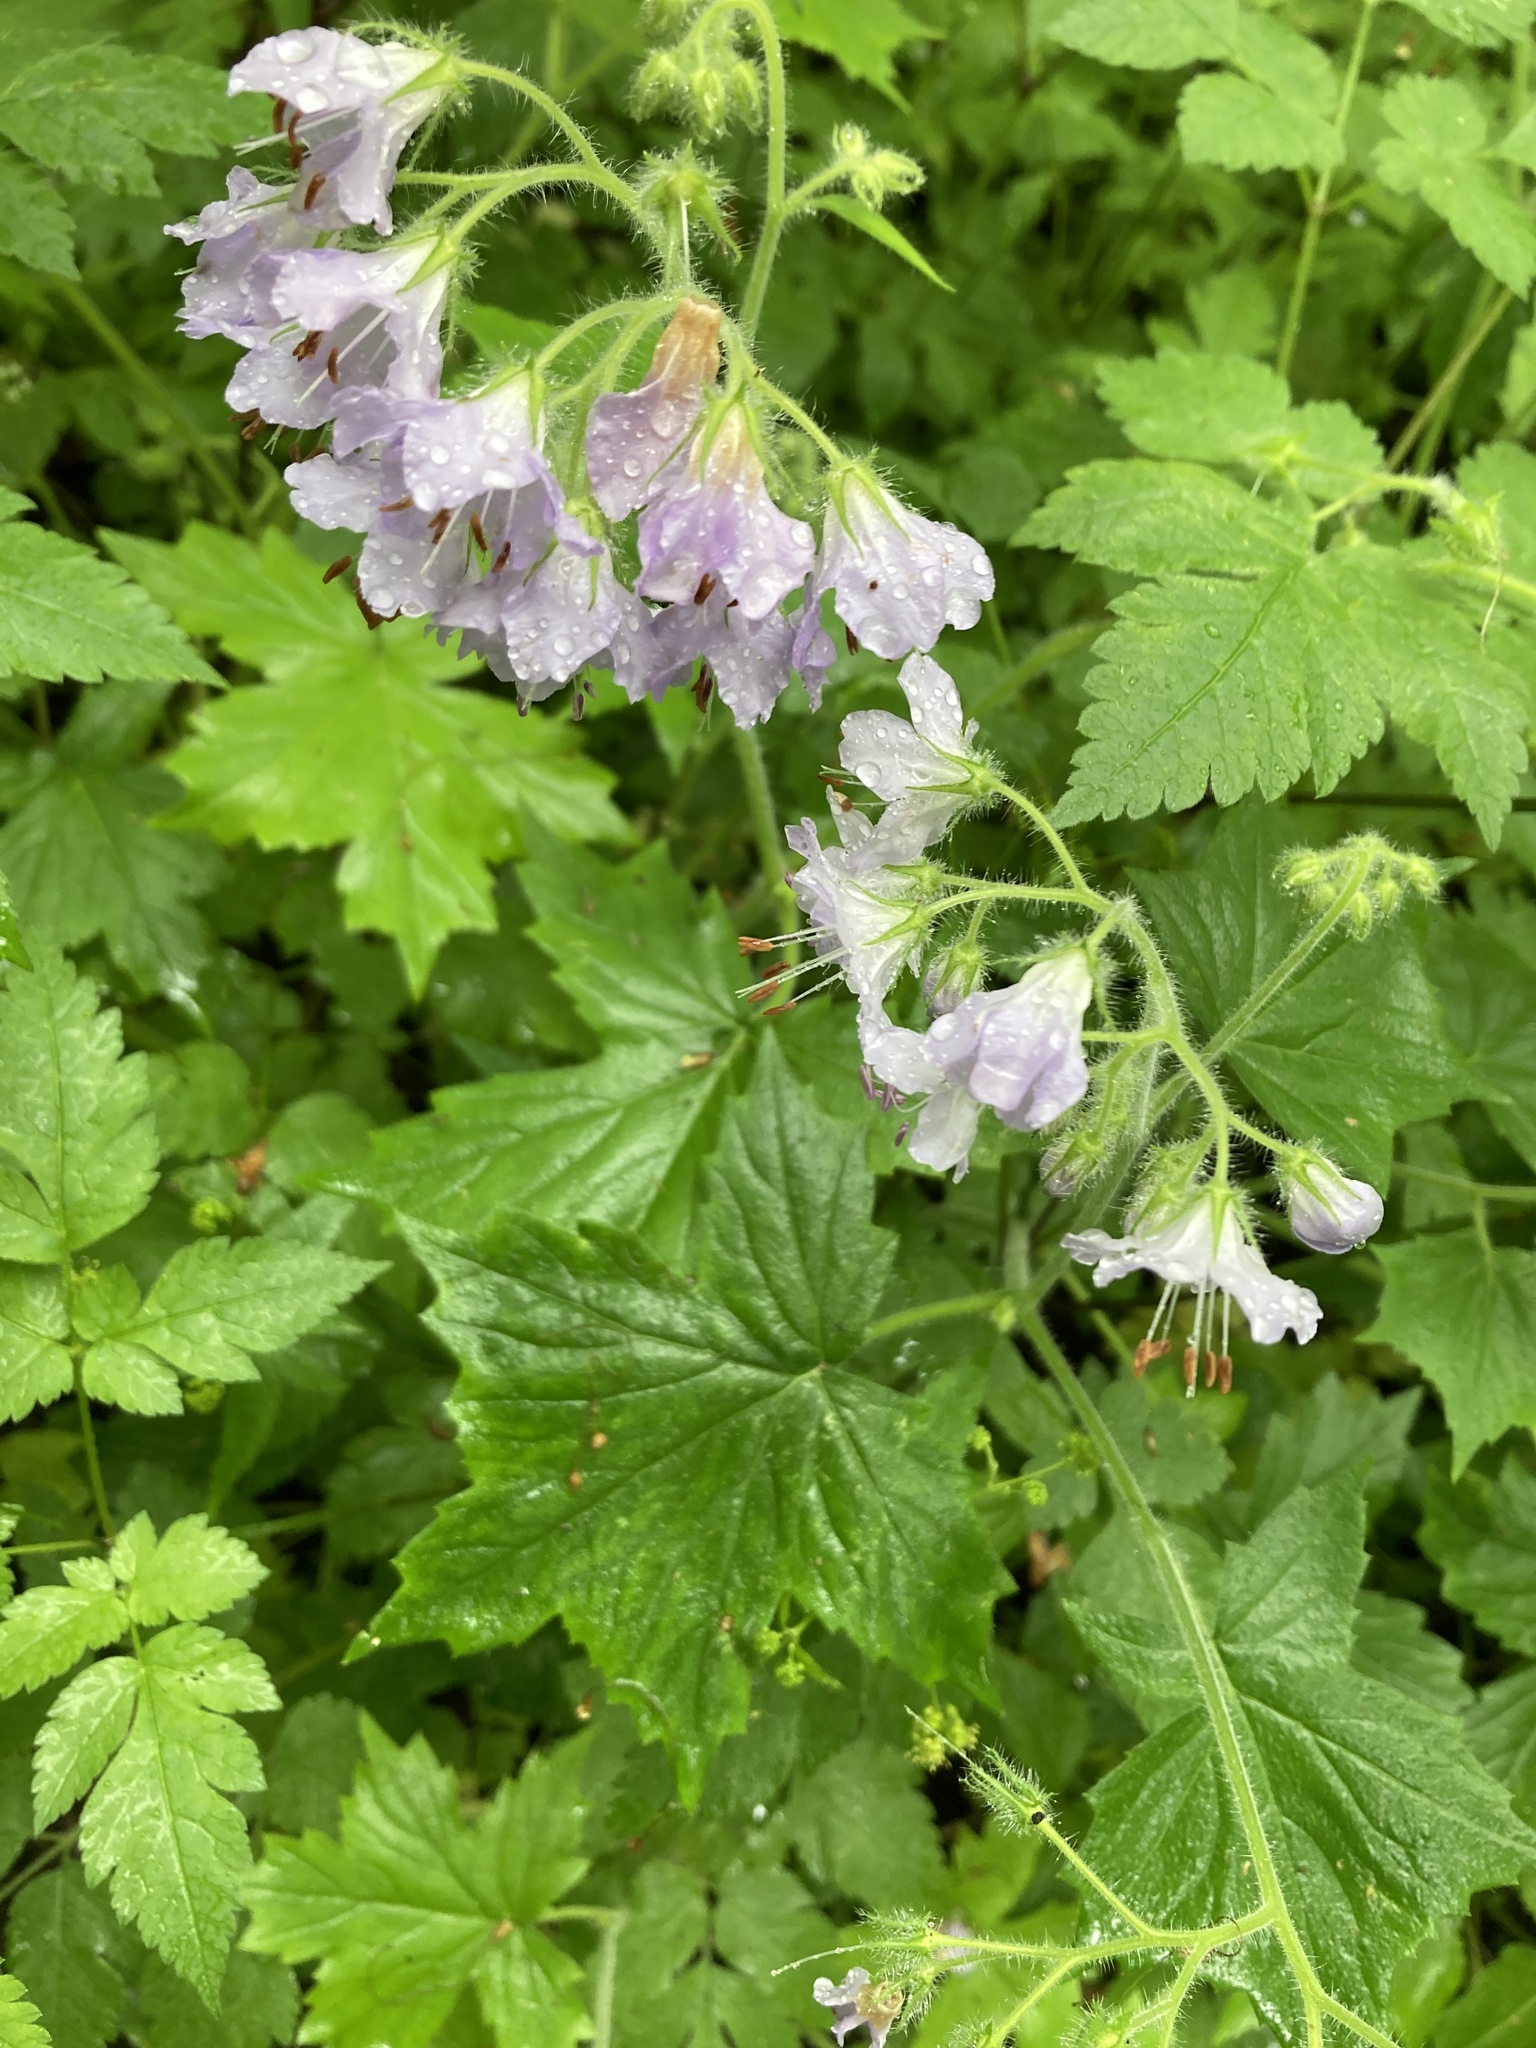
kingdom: Plantae
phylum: Tracheophyta
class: Magnoliopsida
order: Boraginales
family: Hydrophyllaceae
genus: Hydrophyllum
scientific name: Hydrophyllum appendiculatum
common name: Appendaged waterleaf
